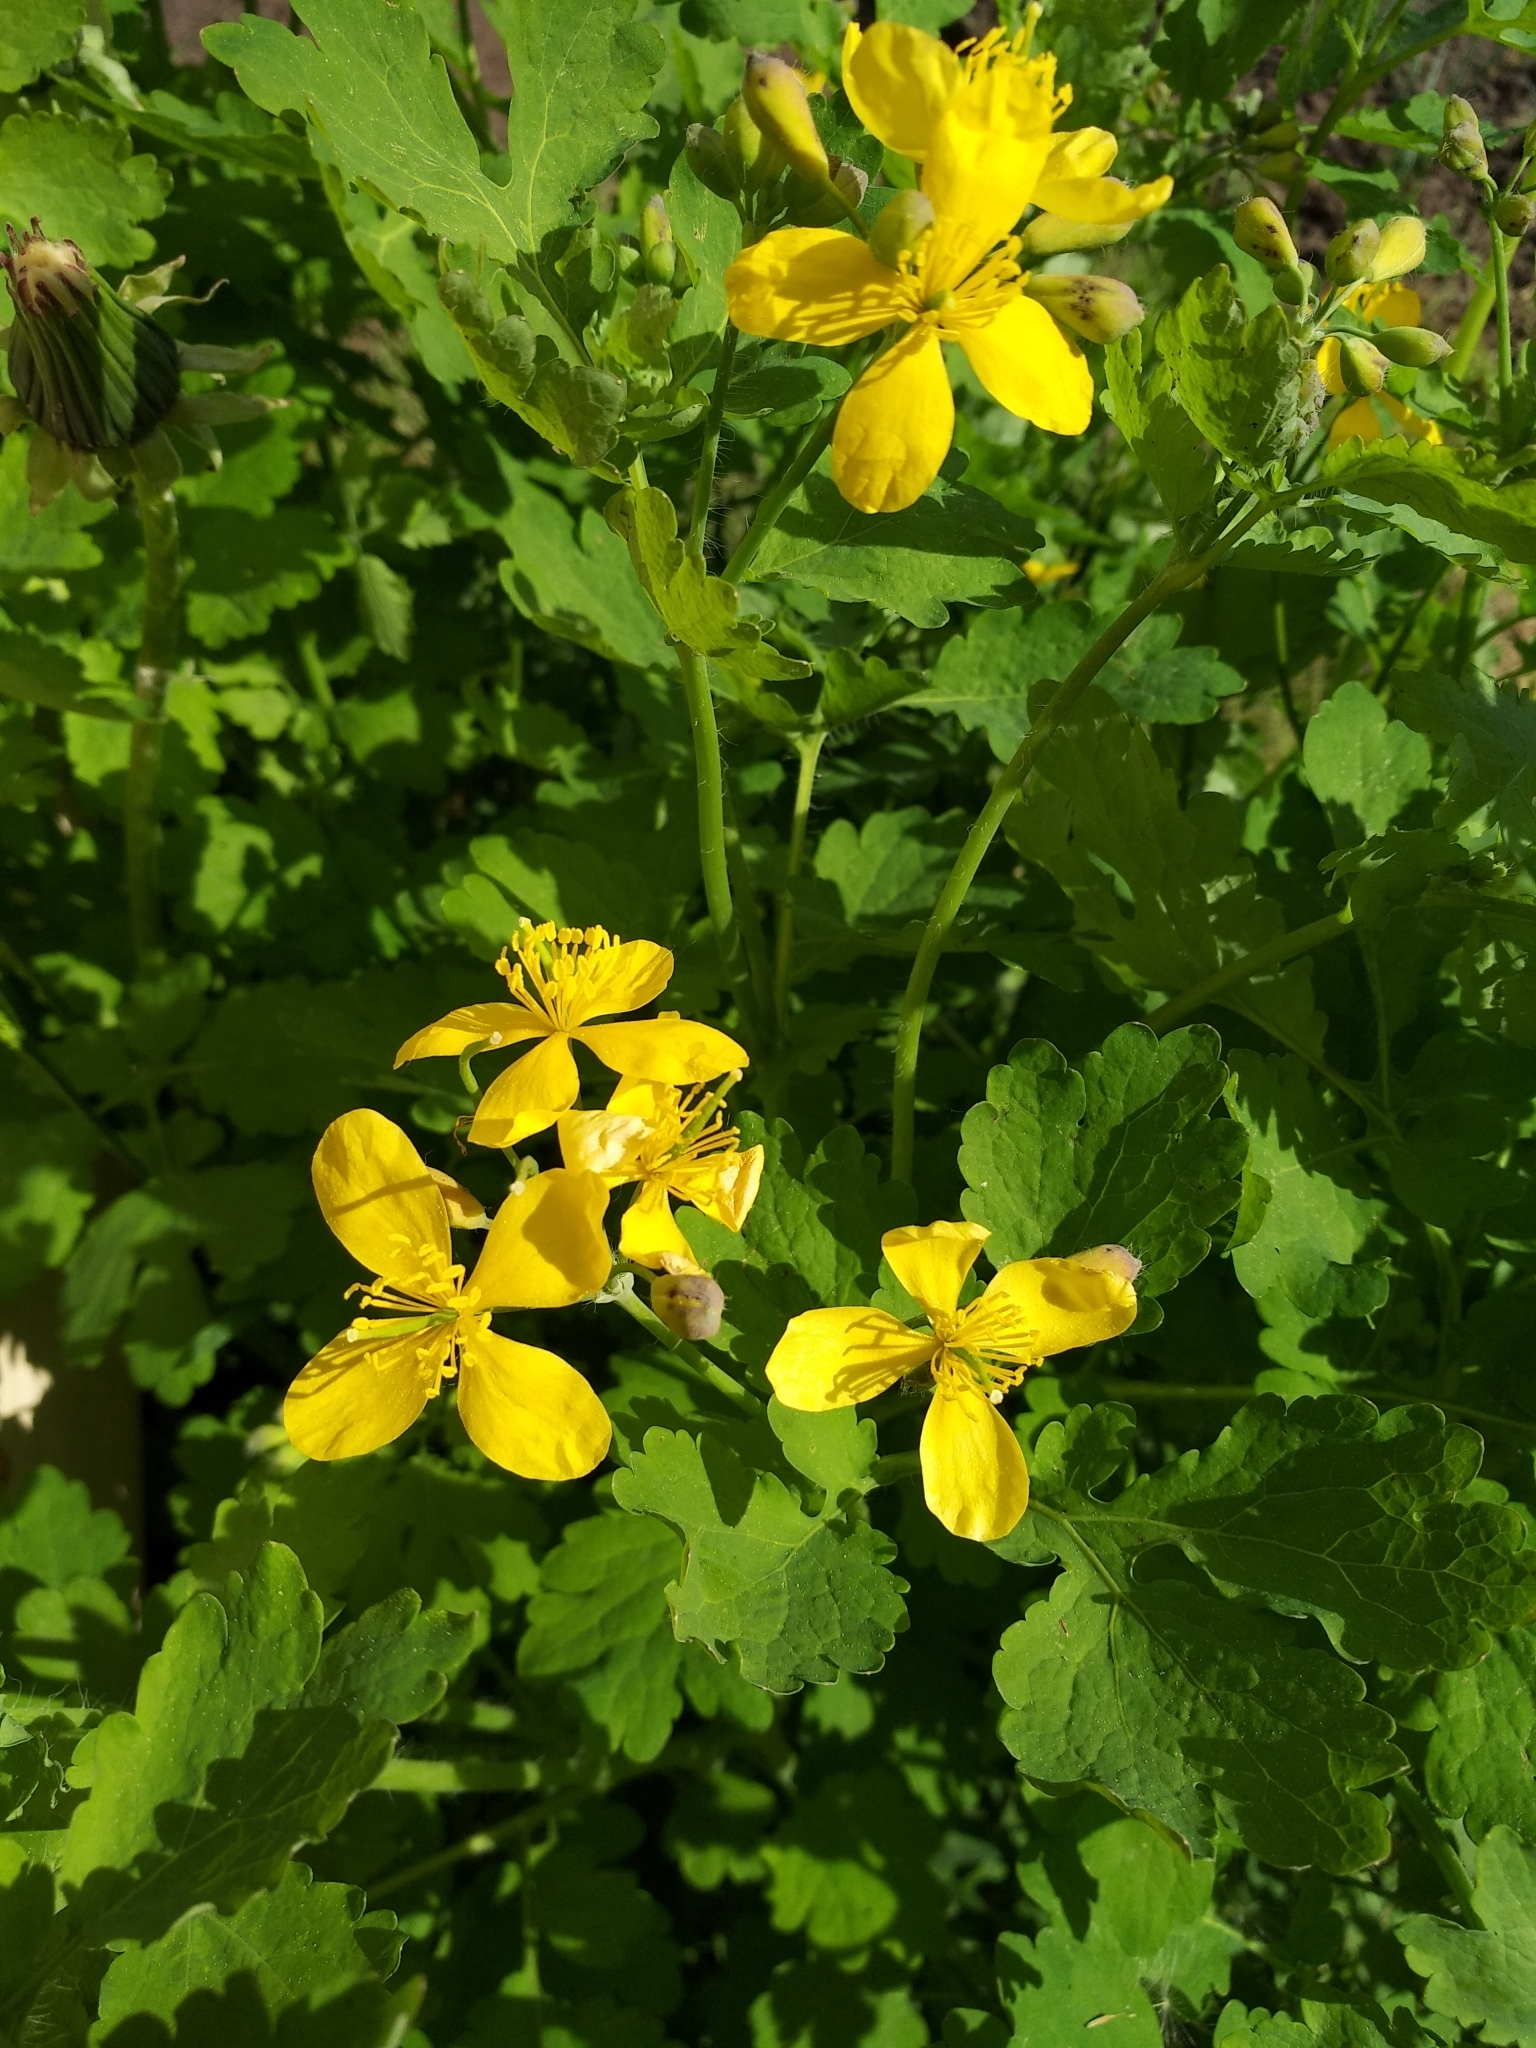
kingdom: Plantae
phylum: Tracheophyta
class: Magnoliopsida
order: Ranunculales
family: Papaveraceae
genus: Chelidonium
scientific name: Chelidonium majus
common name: Greater celandine
